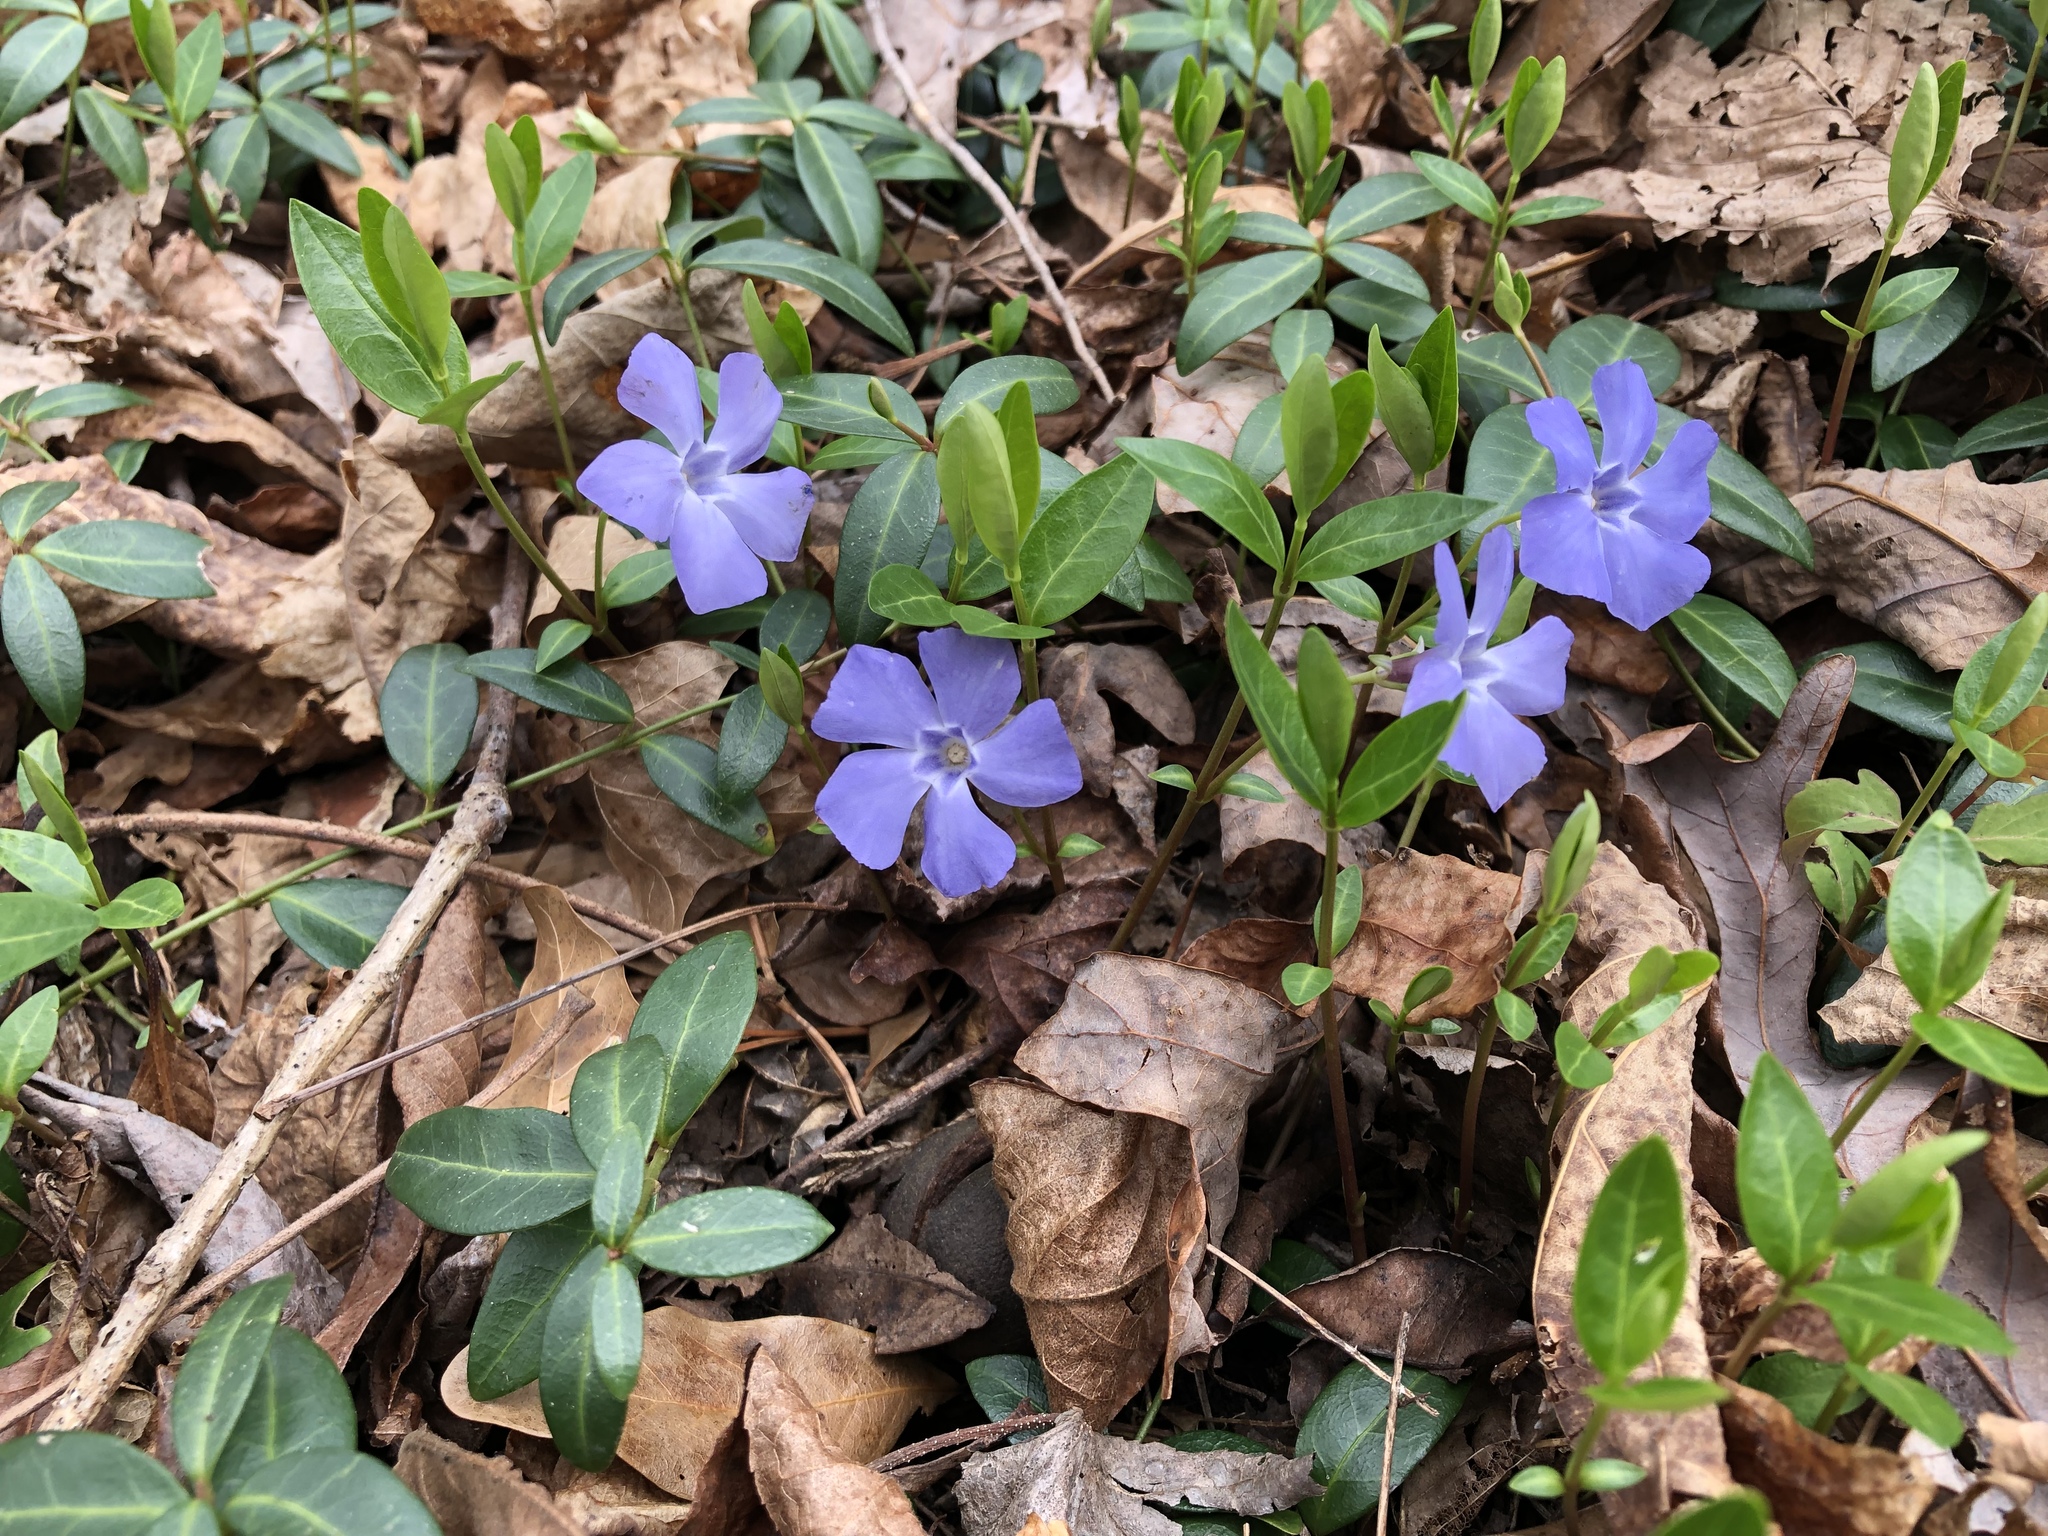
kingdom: Plantae
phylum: Tracheophyta
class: Magnoliopsida
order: Gentianales
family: Apocynaceae
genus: Vinca
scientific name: Vinca minor
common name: Lesser periwinkle
